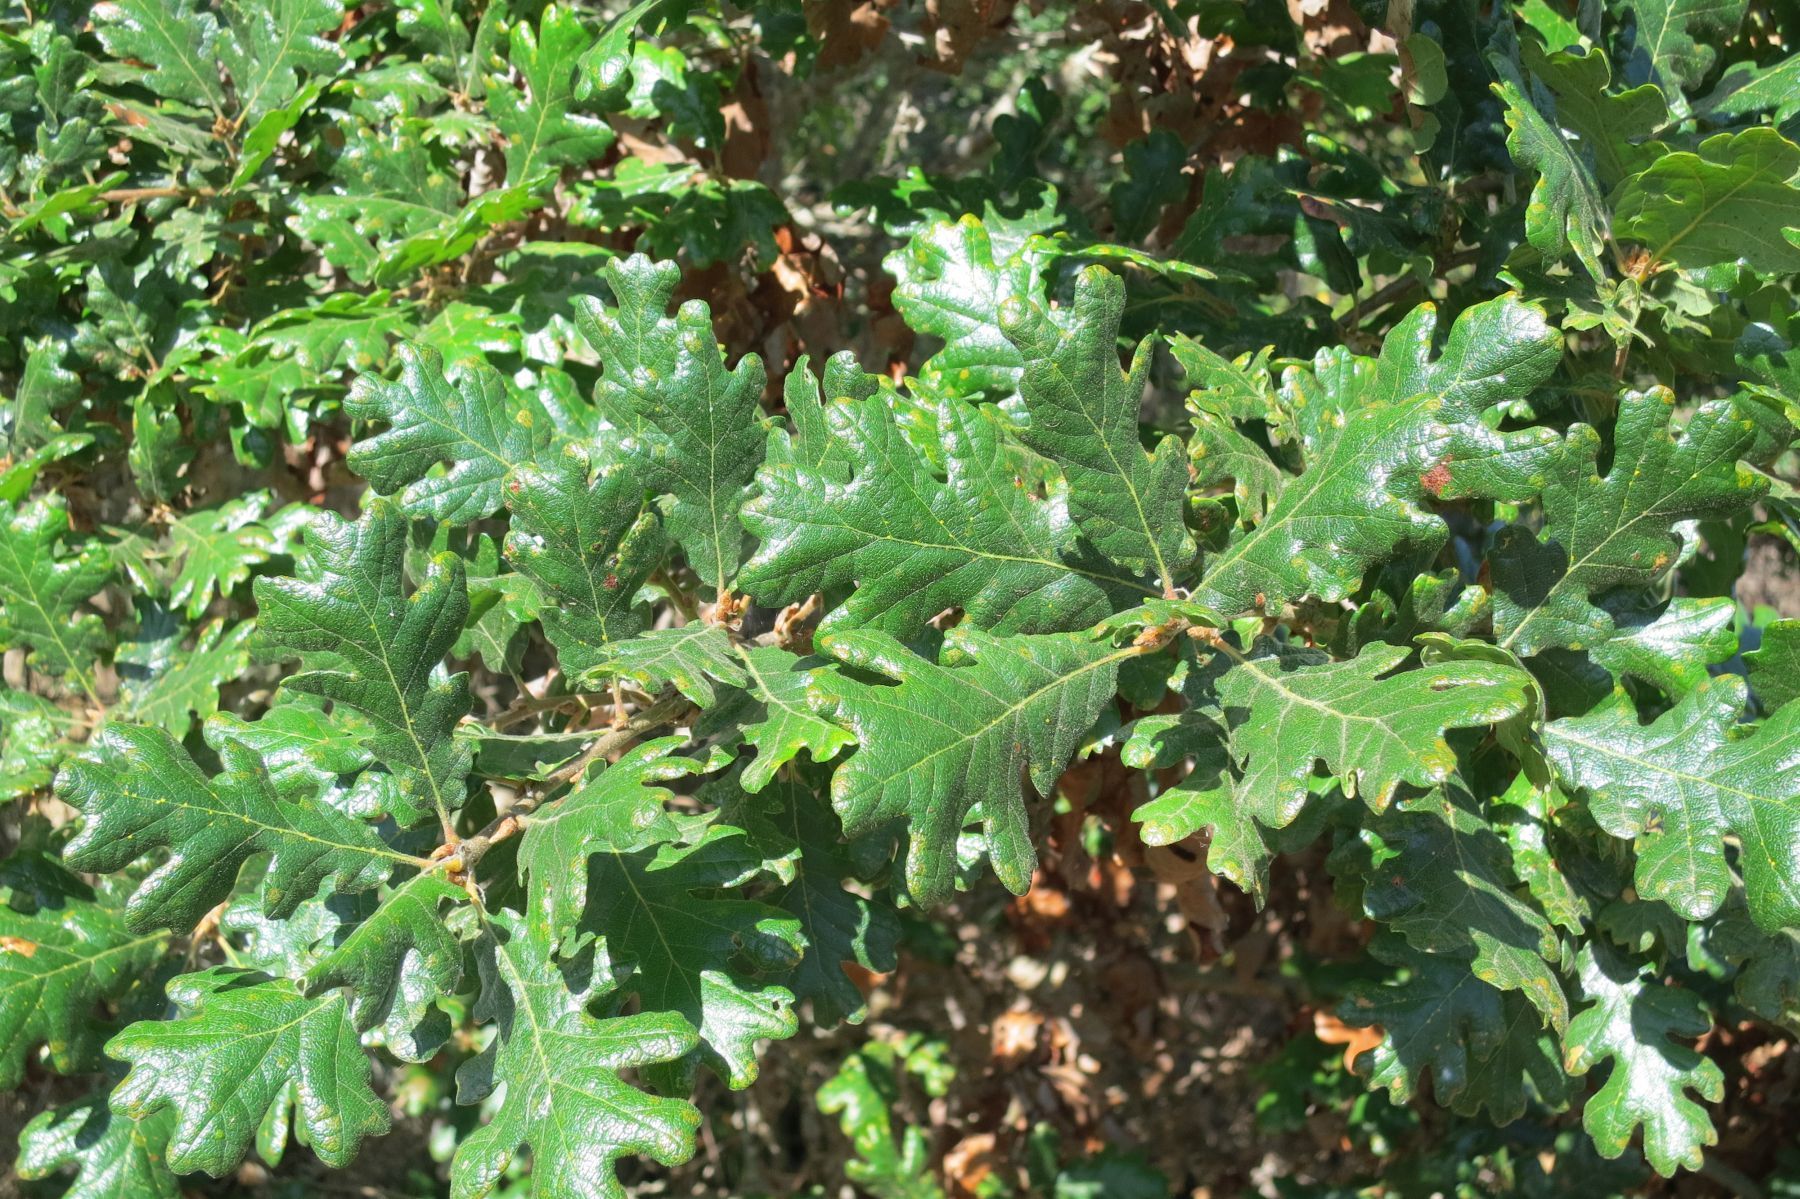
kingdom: Plantae
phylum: Tracheophyta
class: Magnoliopsida
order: Fagales
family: Fagaceae
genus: Quercus
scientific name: Quercus garryana
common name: Garry oak
